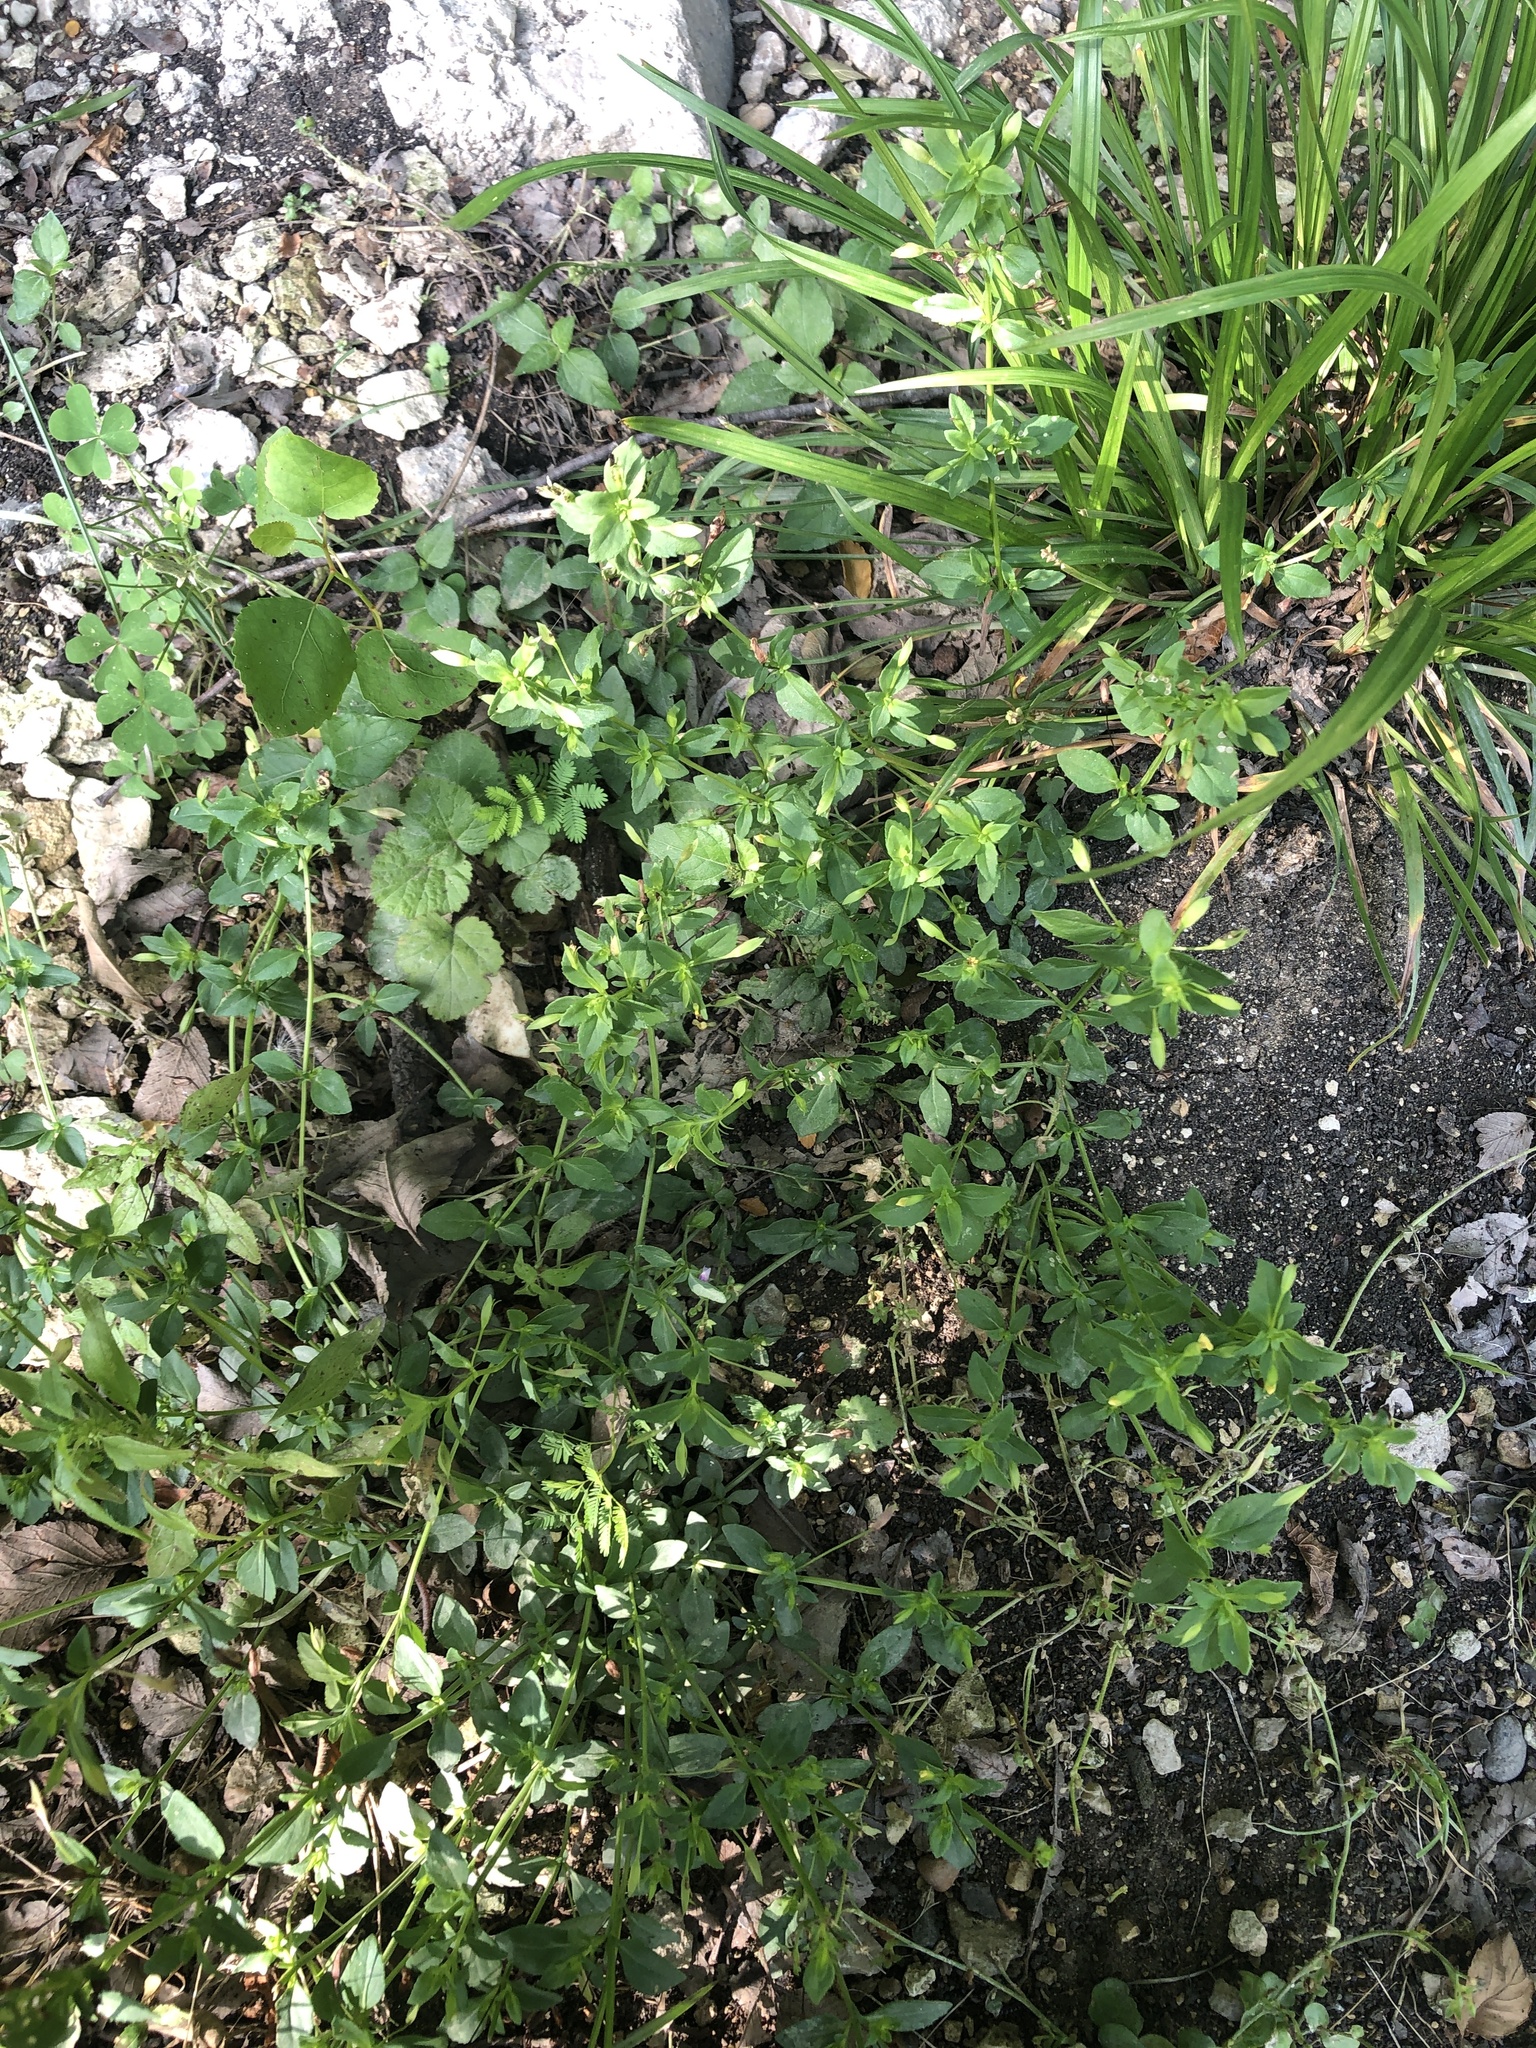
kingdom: Plantae
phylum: Tracheophyta
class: Magnoliopsida
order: Lamiales
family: Plantaginaceae
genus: Mecardonia
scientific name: Mecardonia procumbens
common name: Baby jump-up
